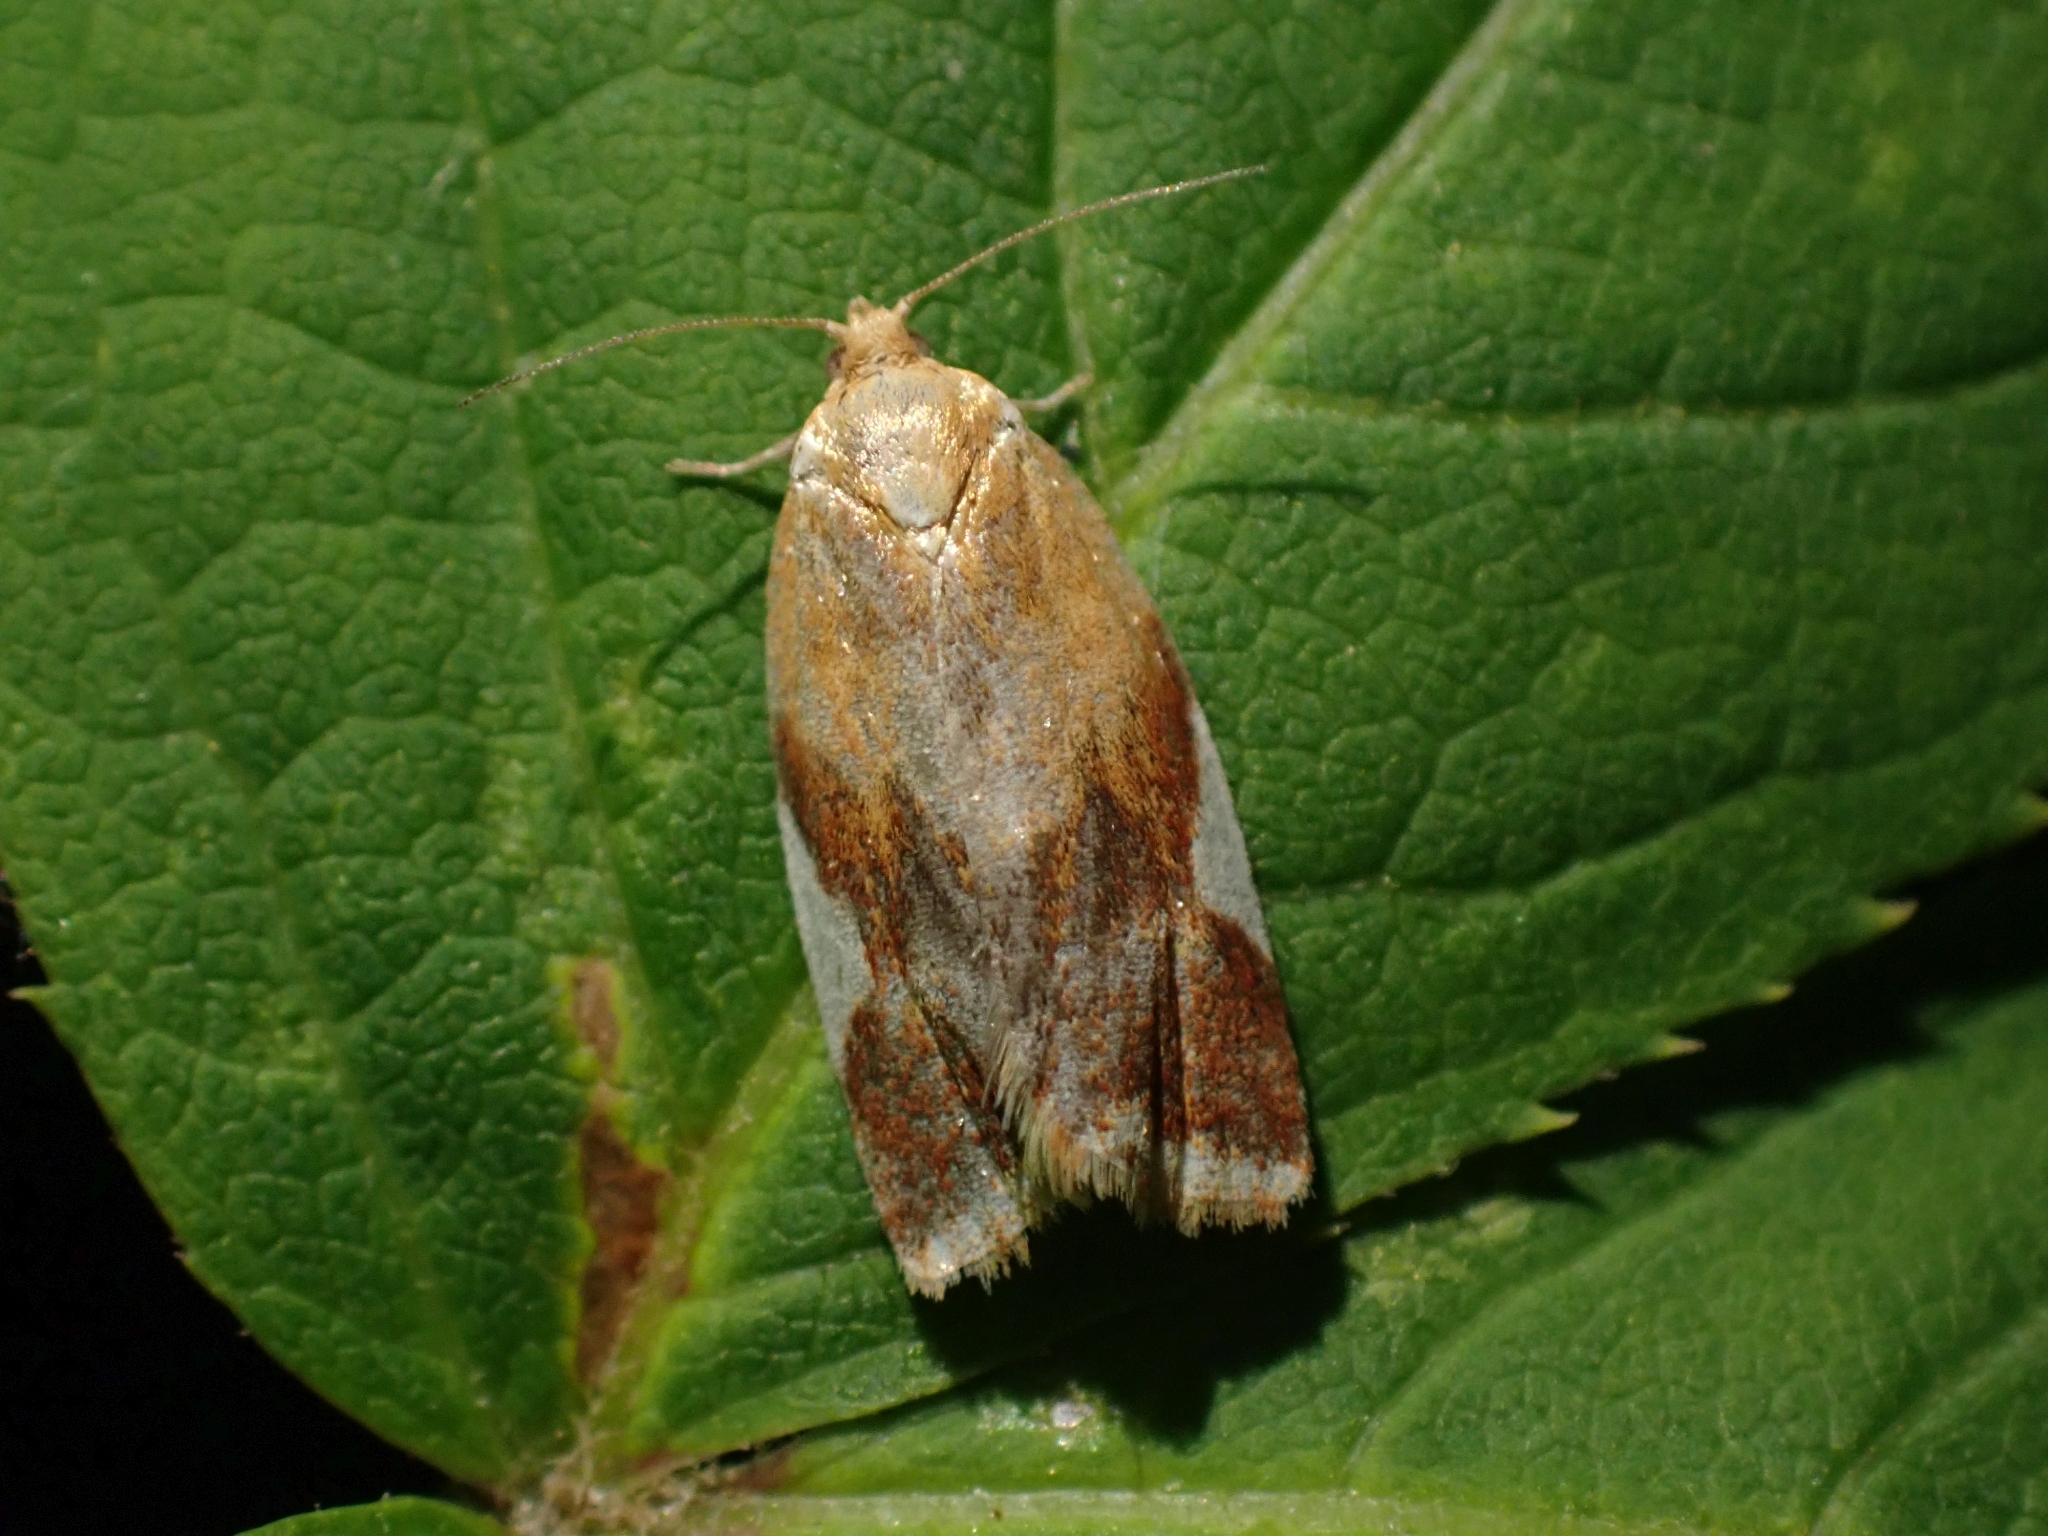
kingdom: Animalia
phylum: Arthropoda
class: Insecta
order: Lepidoptera
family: Tortricidae
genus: Clepsis
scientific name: Clepsis persicana
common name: White triangle tortrix
